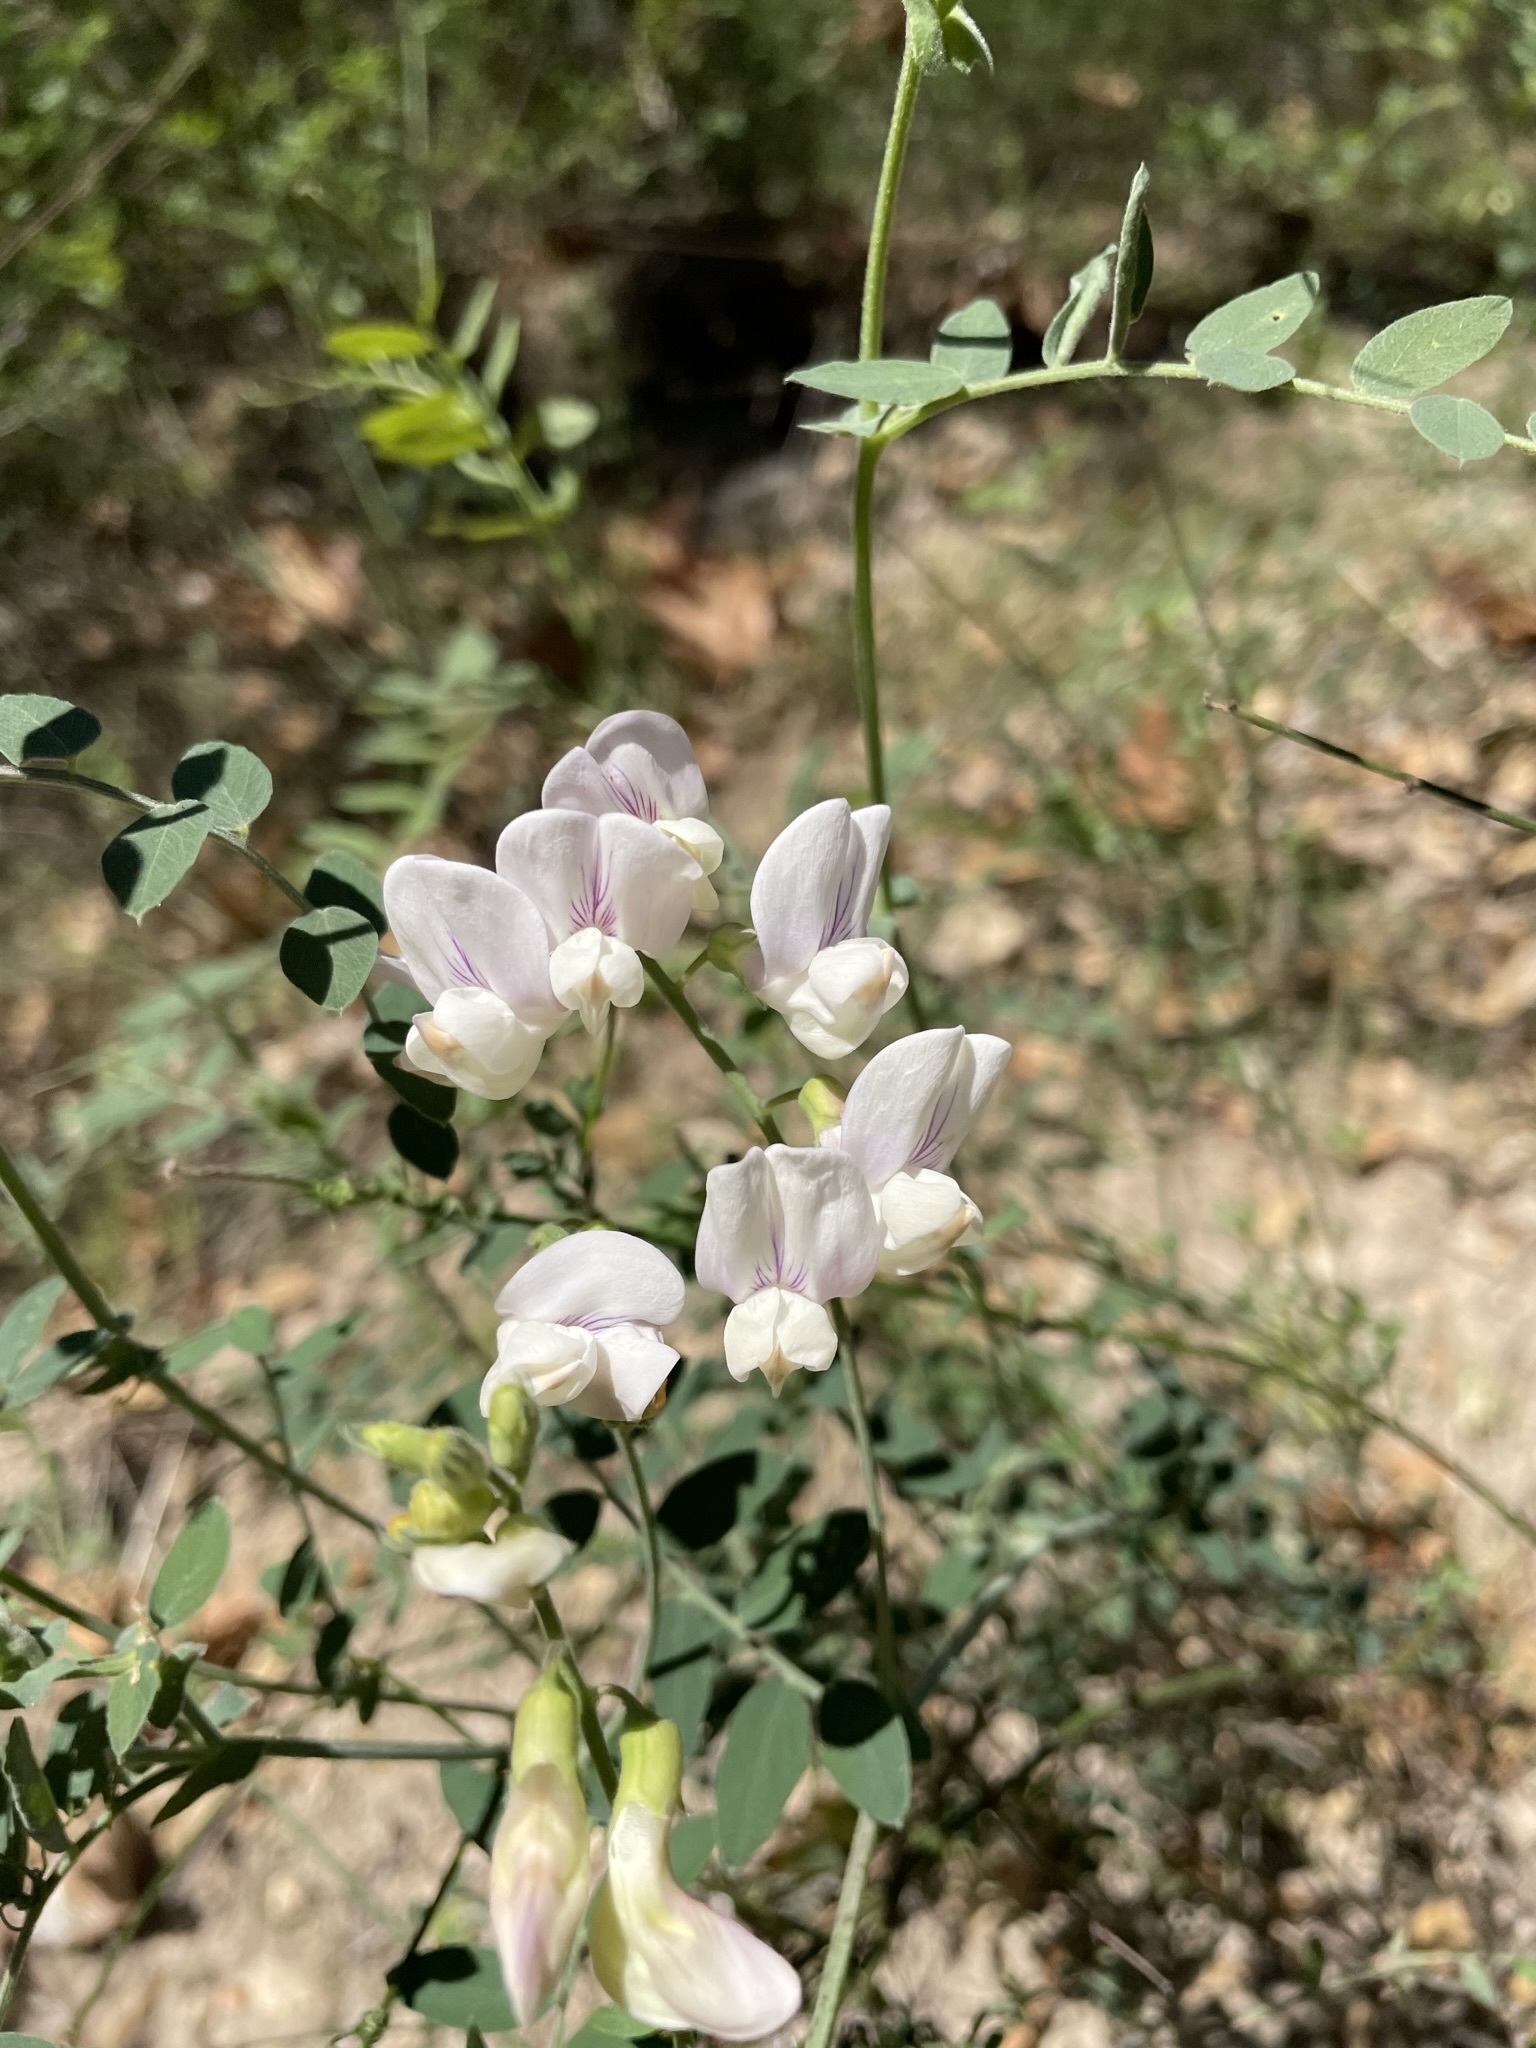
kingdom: Plantae
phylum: Tracheophyta
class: Magnoliopsida
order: Fabales
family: Fabaceae
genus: Lathyrus
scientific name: Lathyrus vestitus
